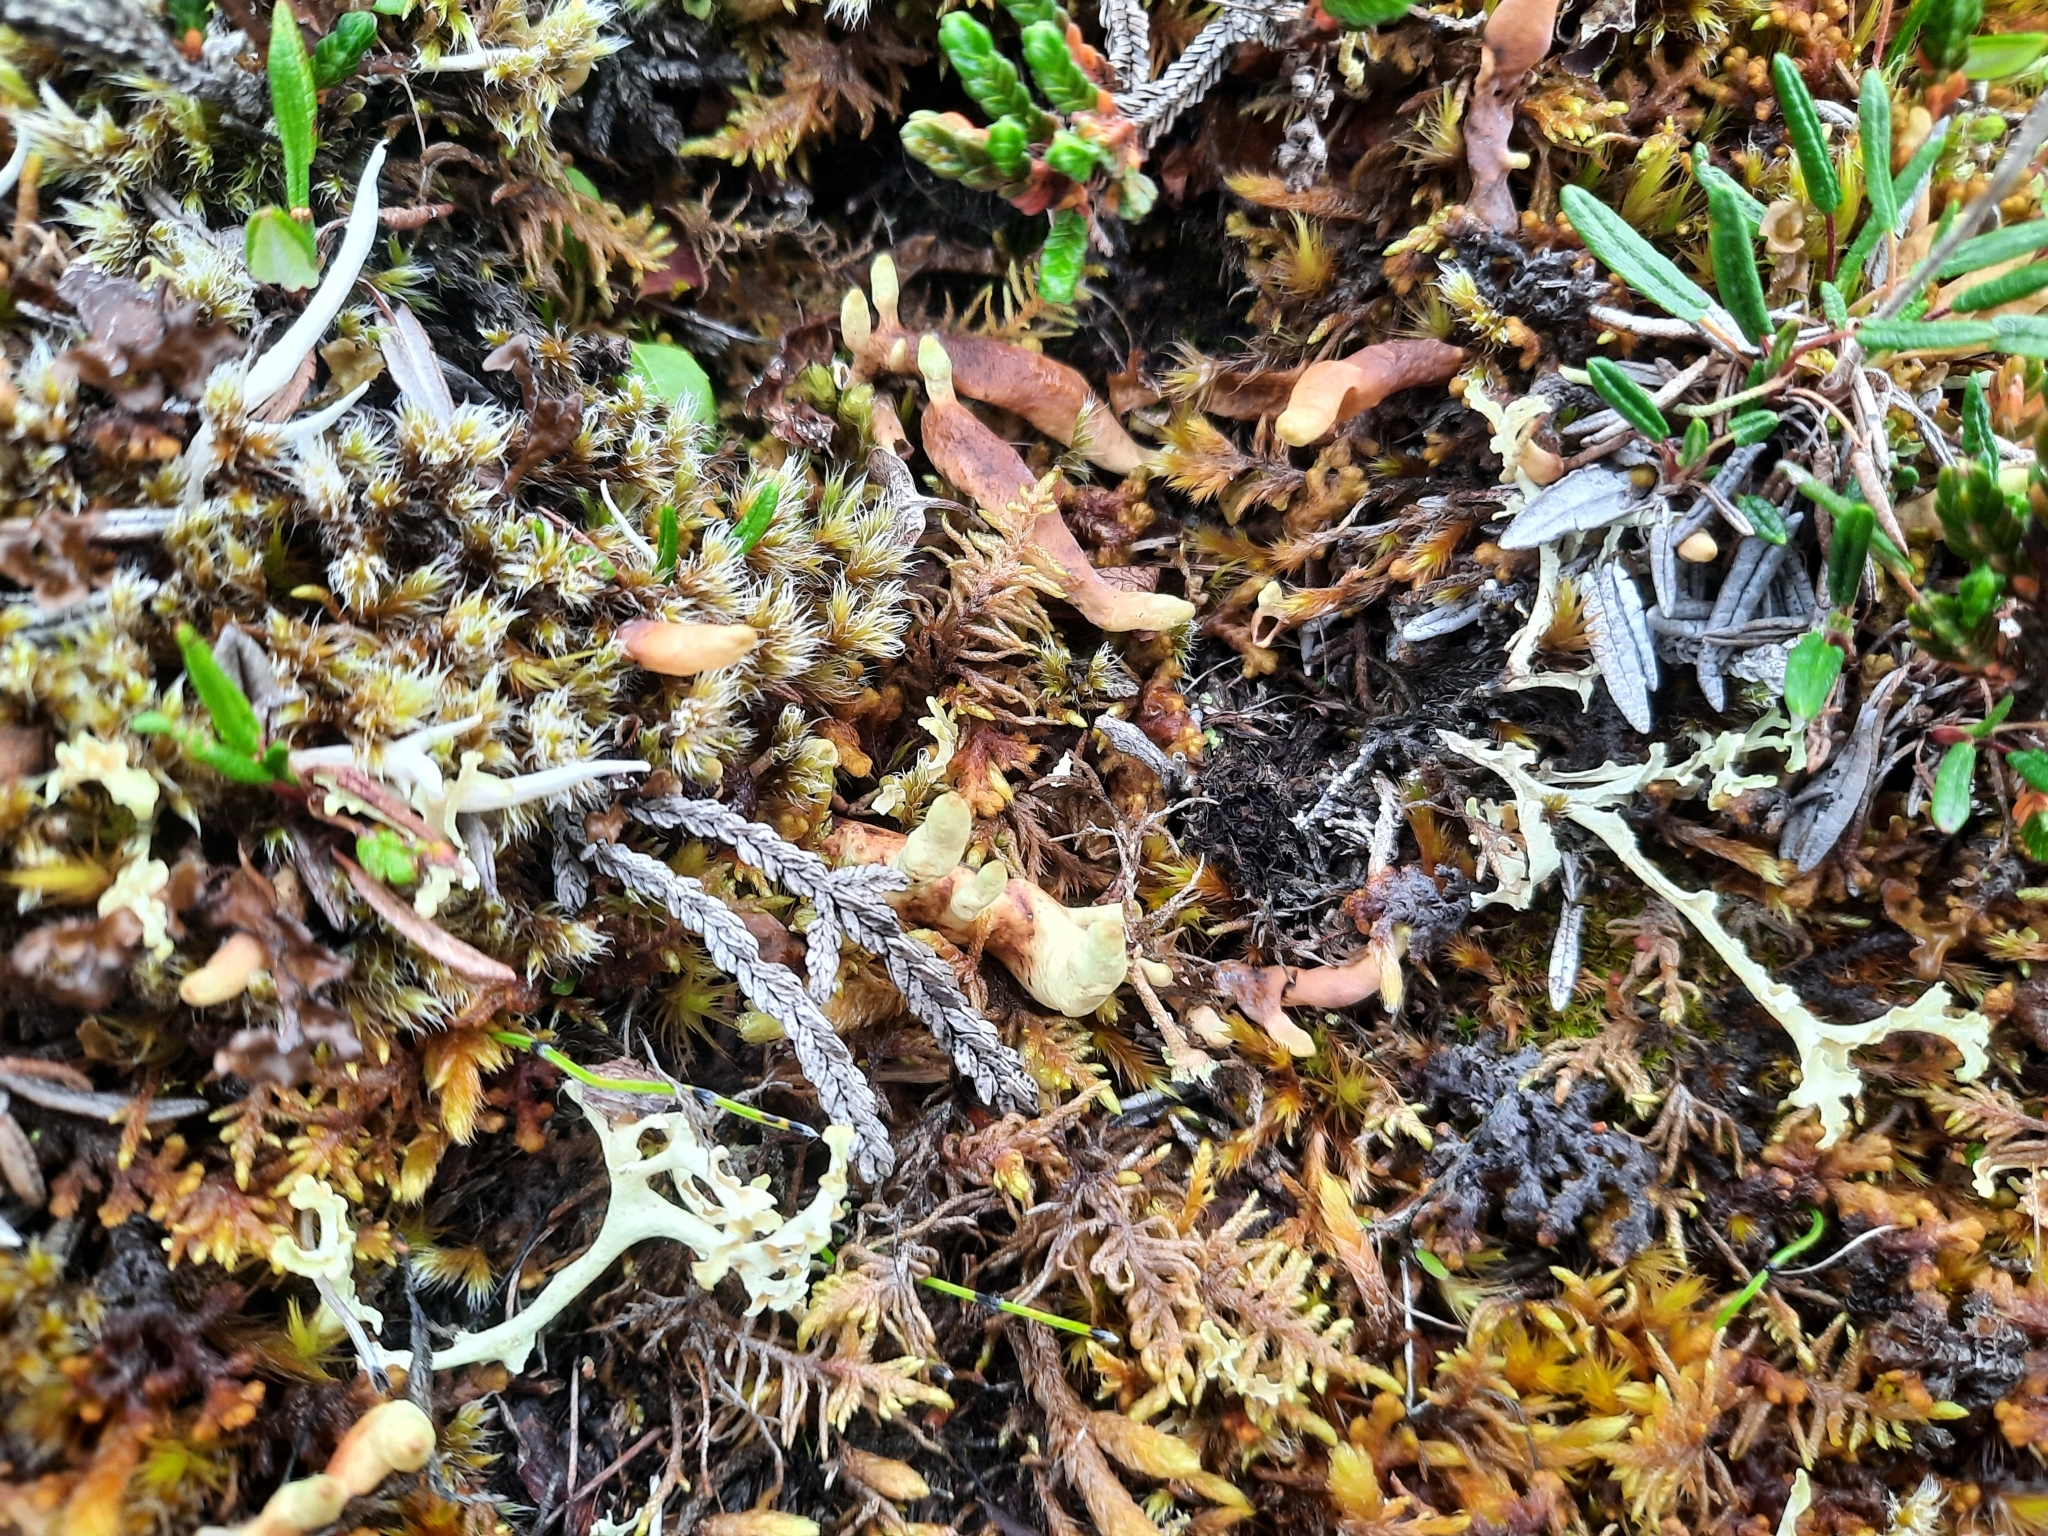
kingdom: Fungi
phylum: Ascomycota
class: Lecanoromycetes
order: Lecanorales
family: Parmeliaceae
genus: Dactylina
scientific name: Dactylina arctica
